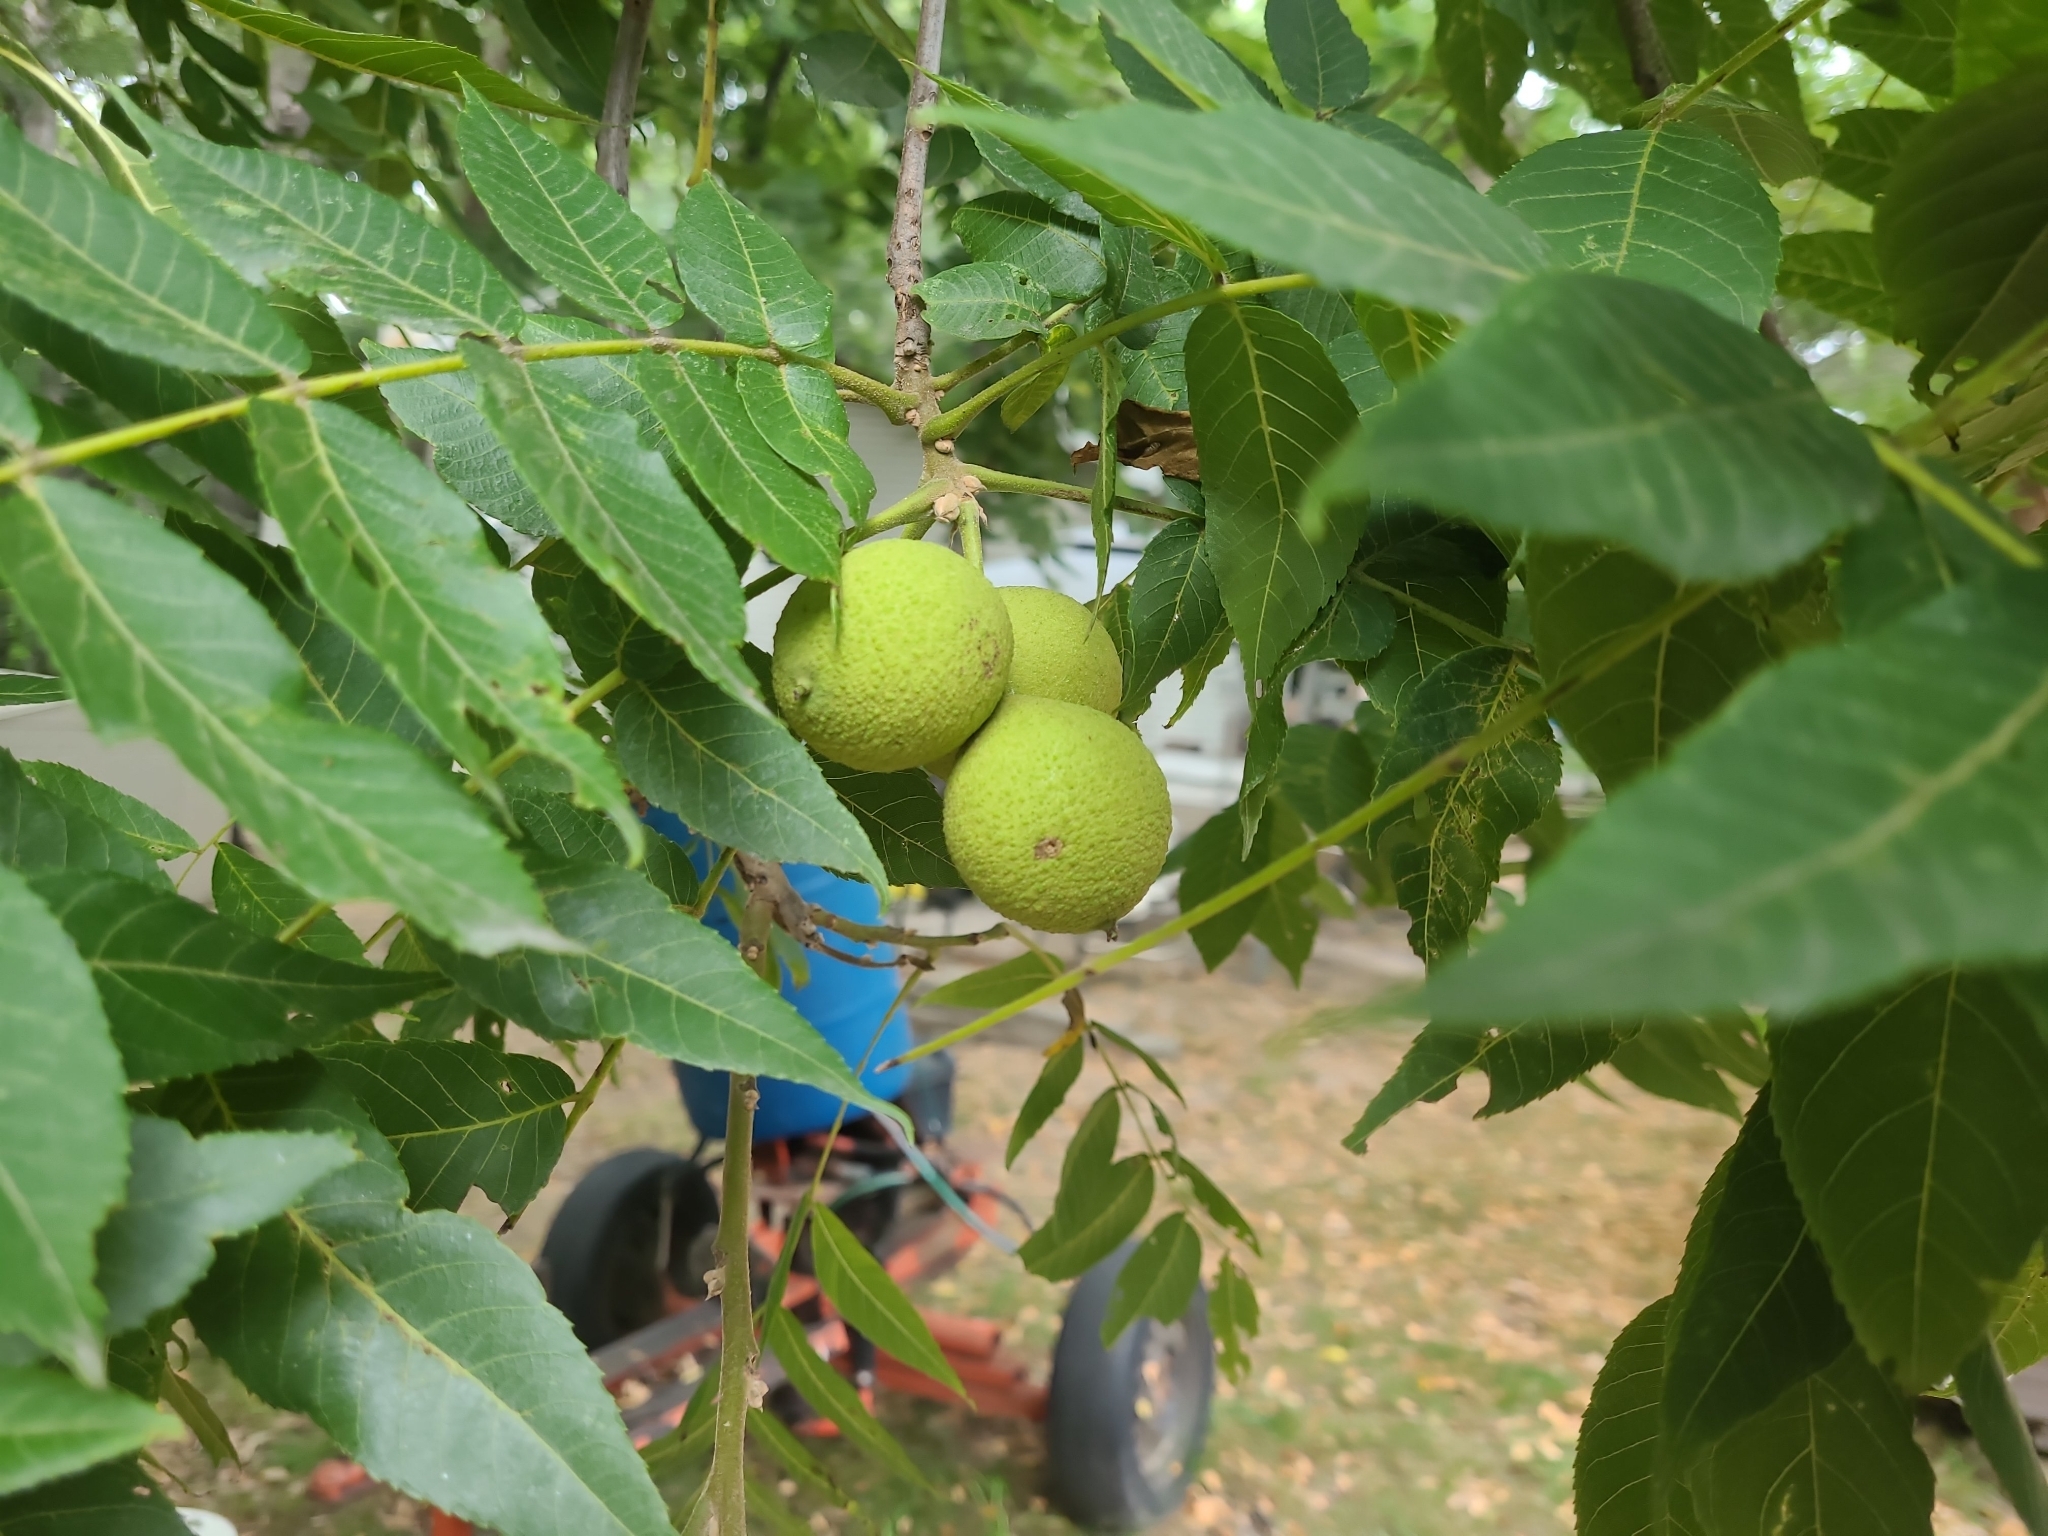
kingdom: Plantae
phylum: Tracheophyta
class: Magnoliopsida
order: Fagales
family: Juglandaceae
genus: Juglans
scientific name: Juglans nigra
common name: Black walnut
